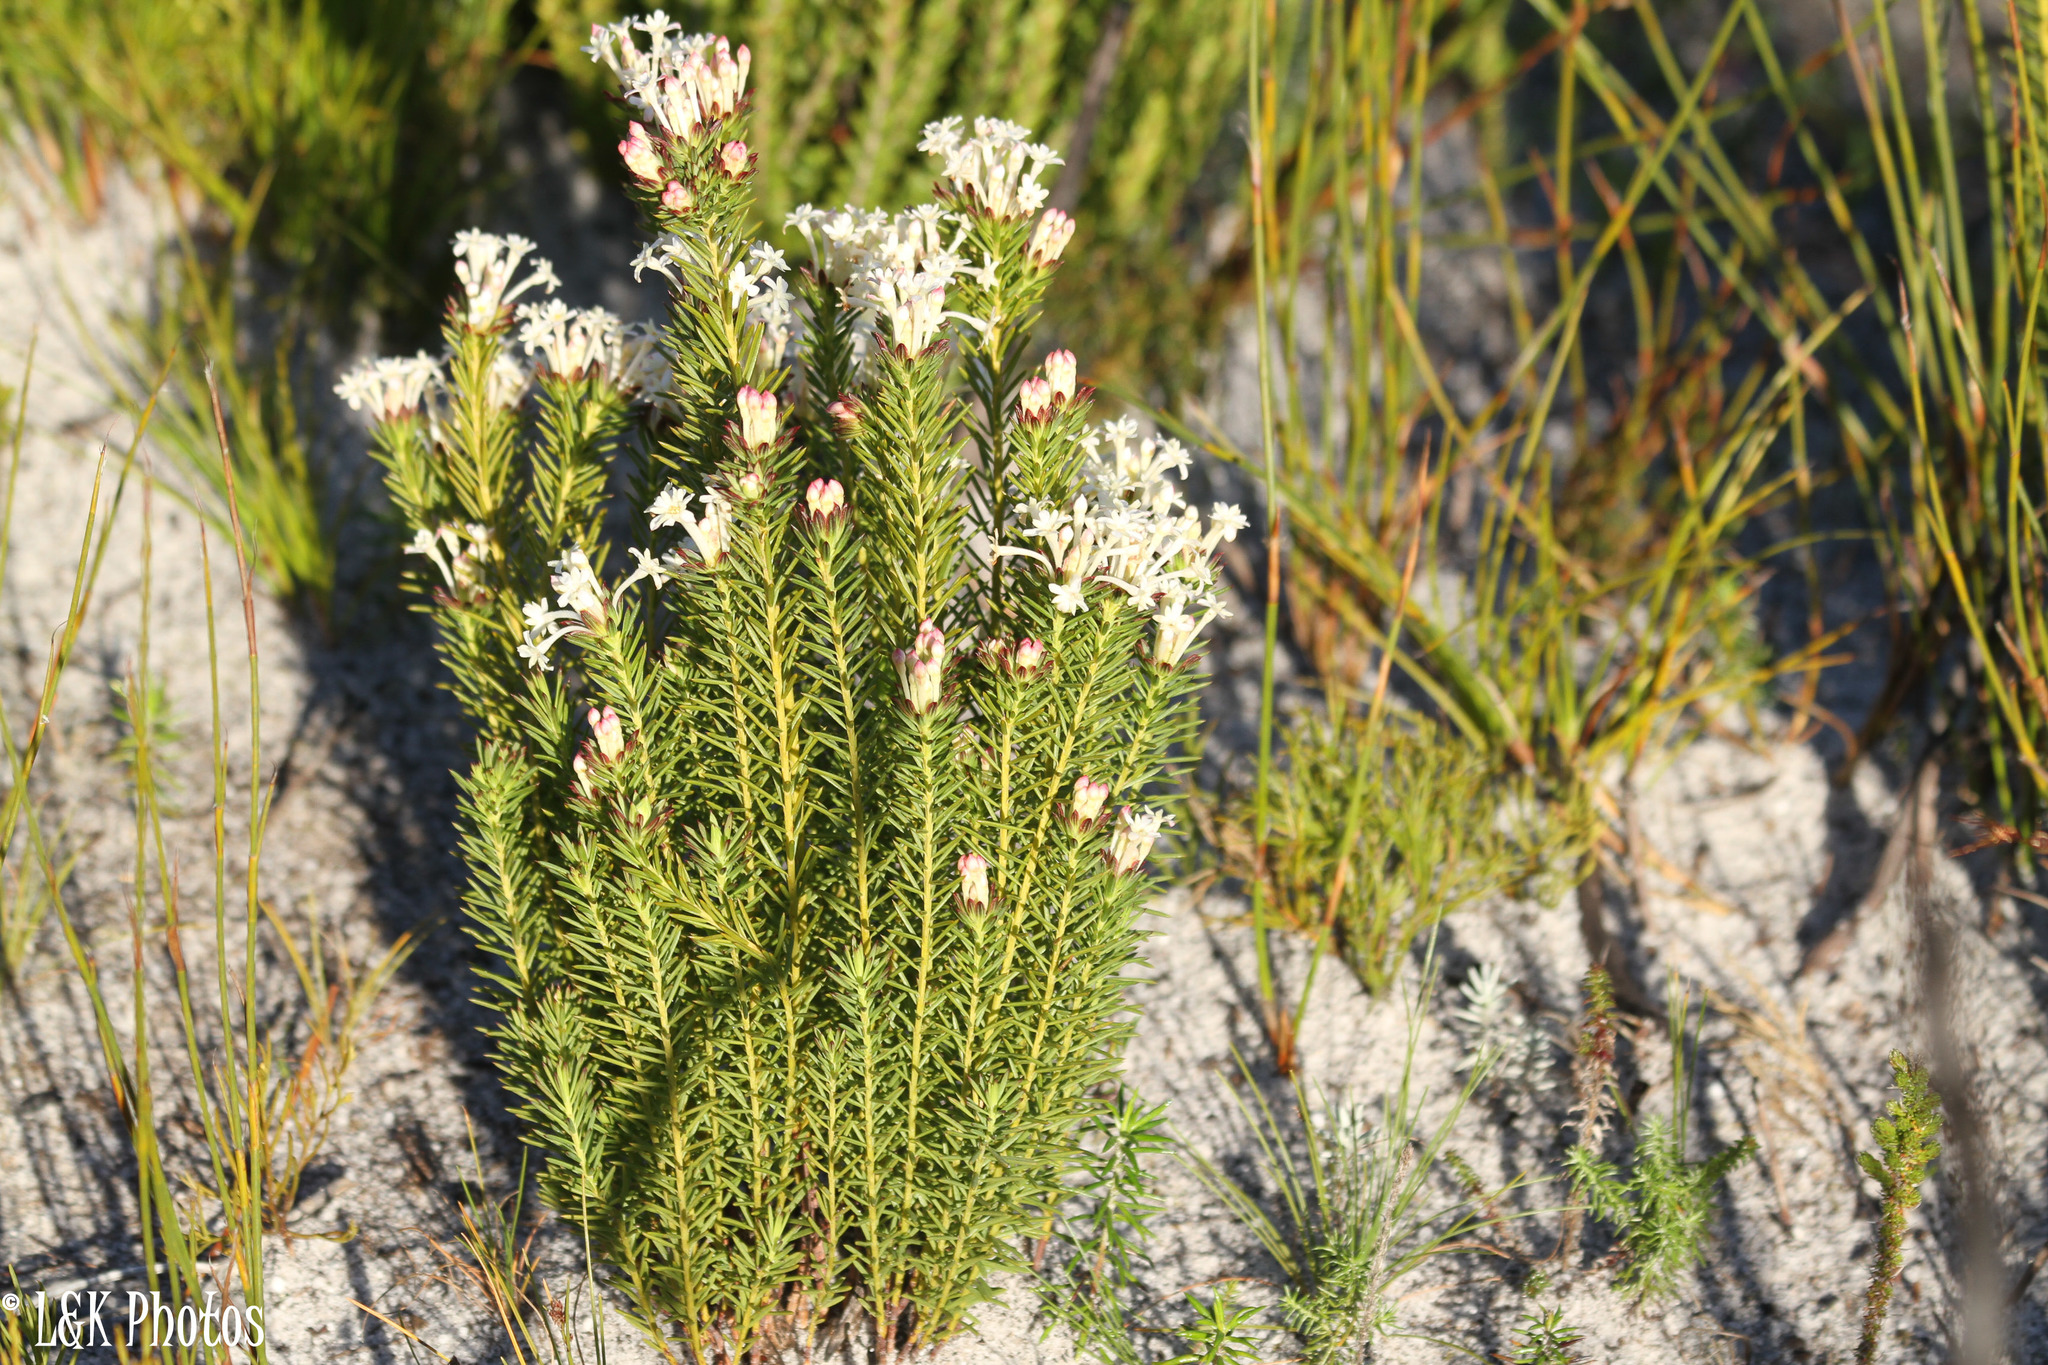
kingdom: Plantae
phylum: Tracheophyta
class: Magnoliopsida
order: Malvales
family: Thymelaeaceae
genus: Gnidia
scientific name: Gnidia pinifolia
